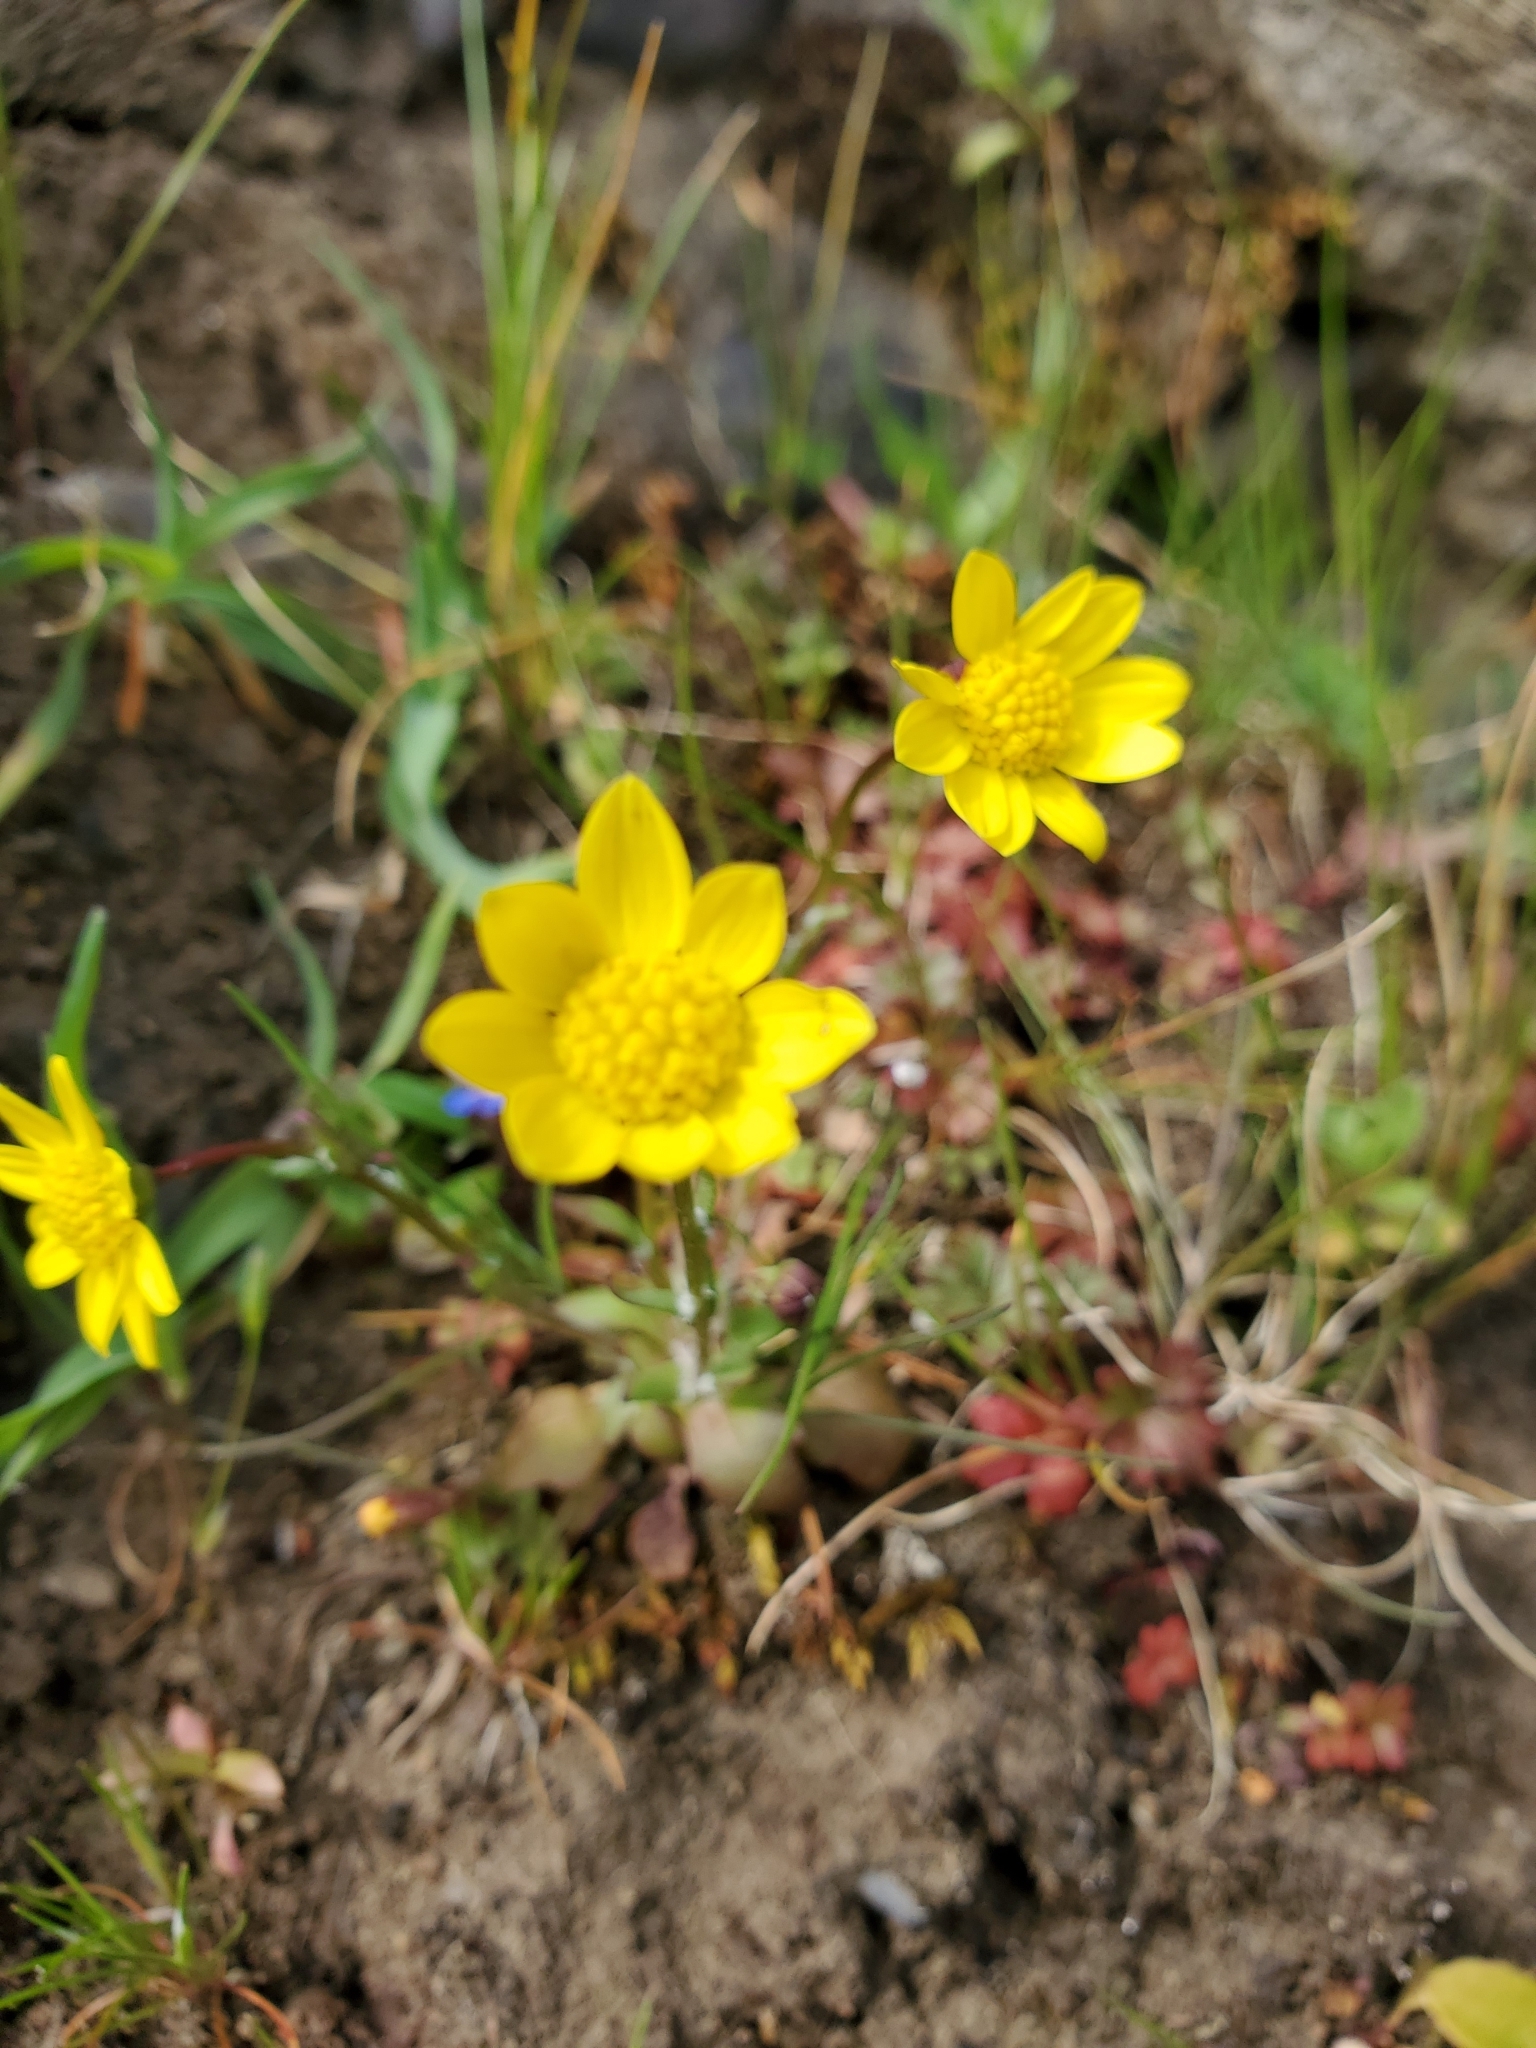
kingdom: Plantae
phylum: Tracheophyta
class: Magnoliopsida
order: Asterales
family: Asteraceae
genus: Crocidium
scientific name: Crocidium multicaule
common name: Common spring gold
